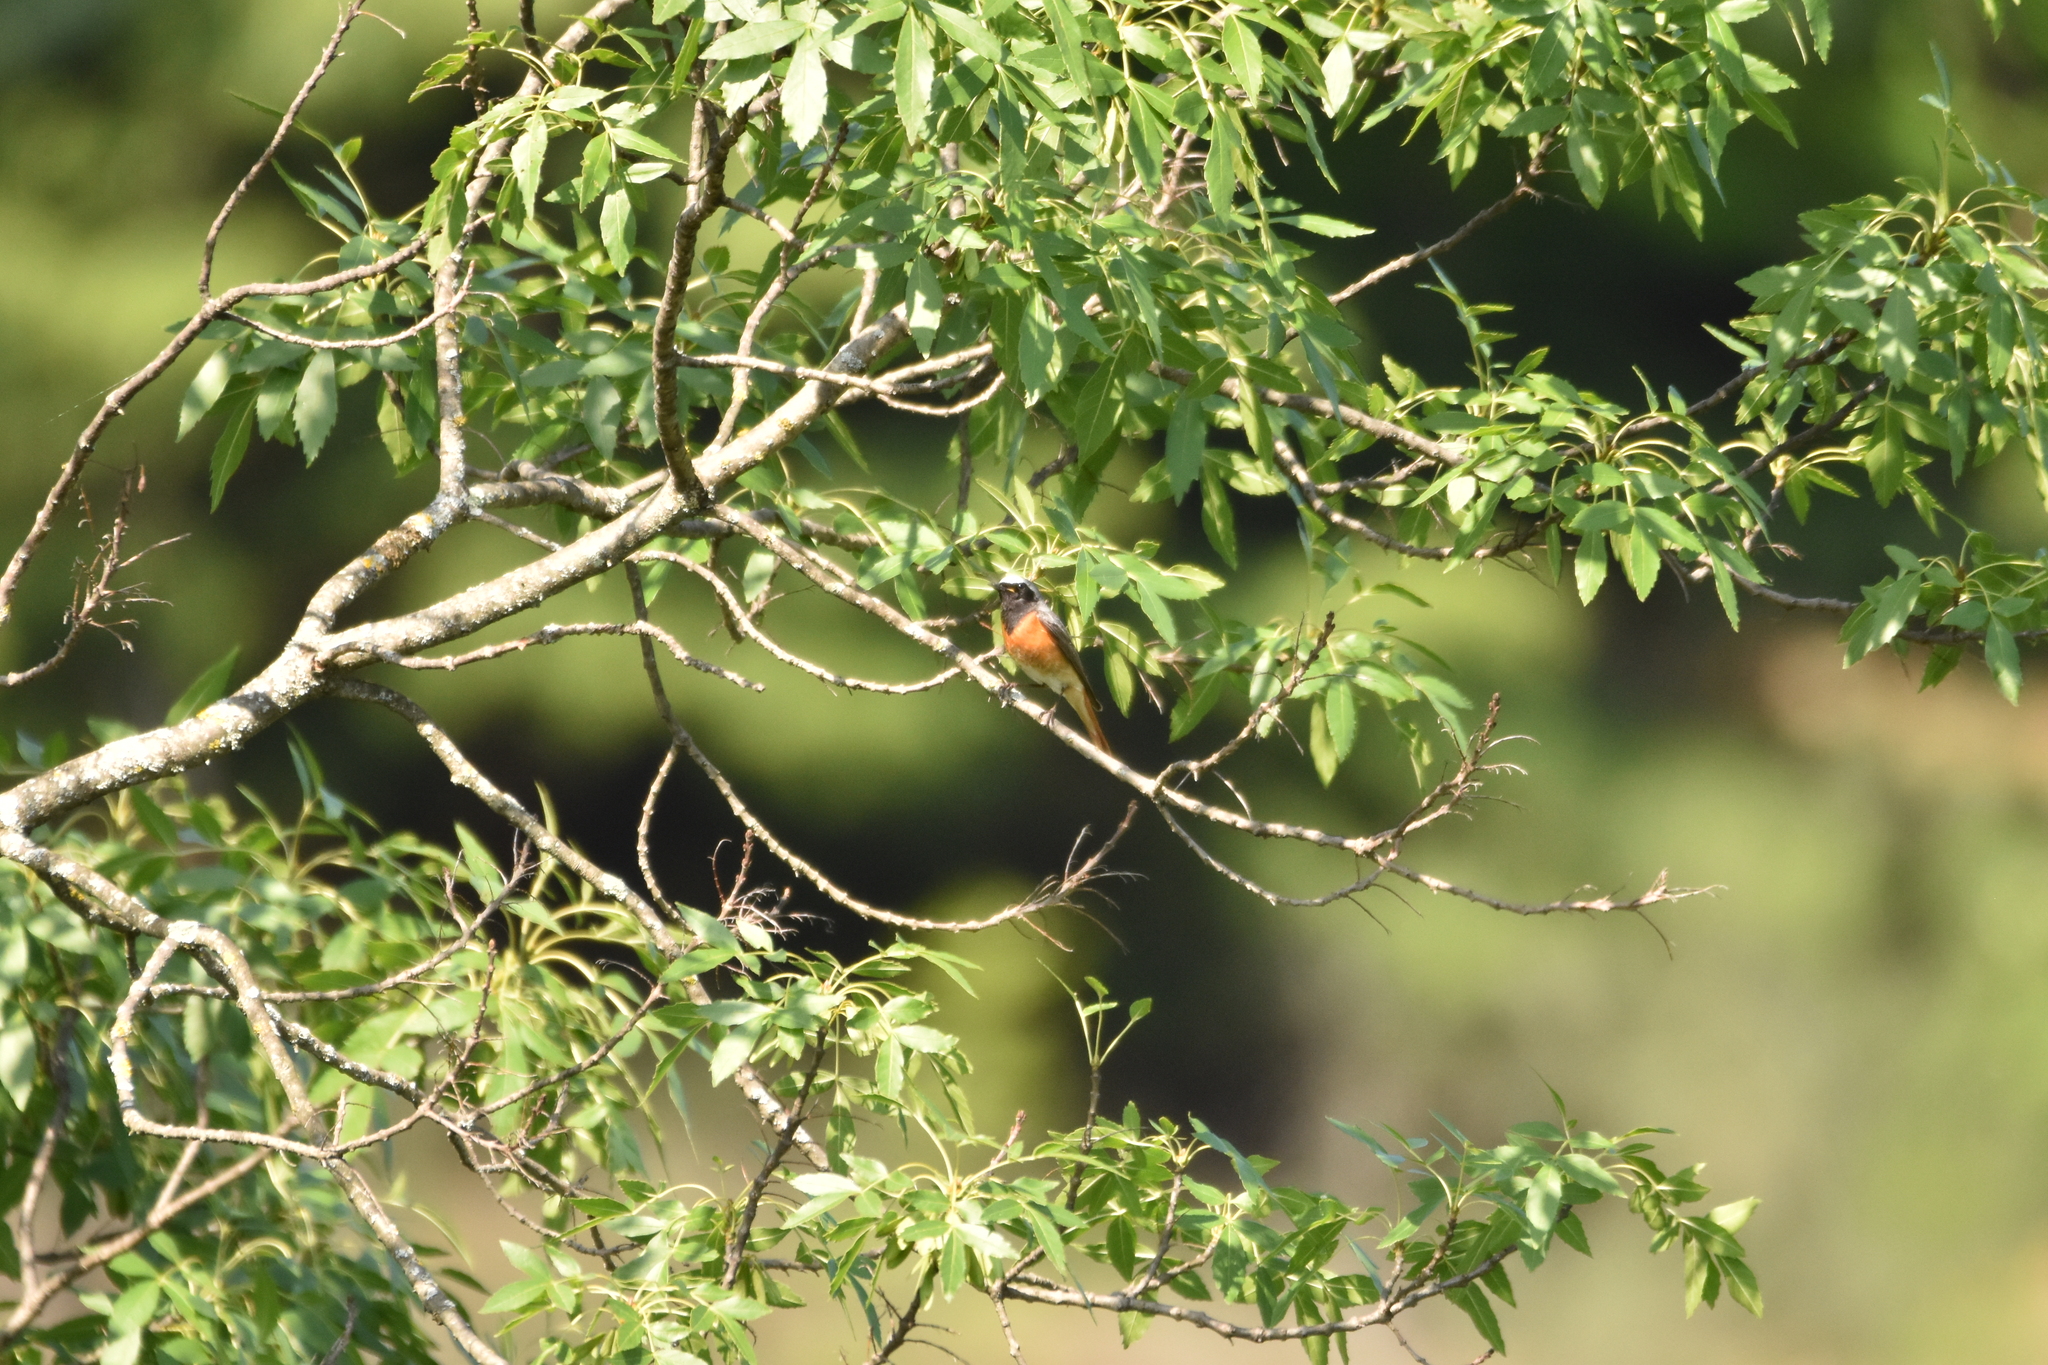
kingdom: Animalia
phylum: Chordata
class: Aves
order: Passeriformes
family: Muscicapidae
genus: Phoenicurus
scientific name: Phoenicurus phoenicurus
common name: Common redstart
